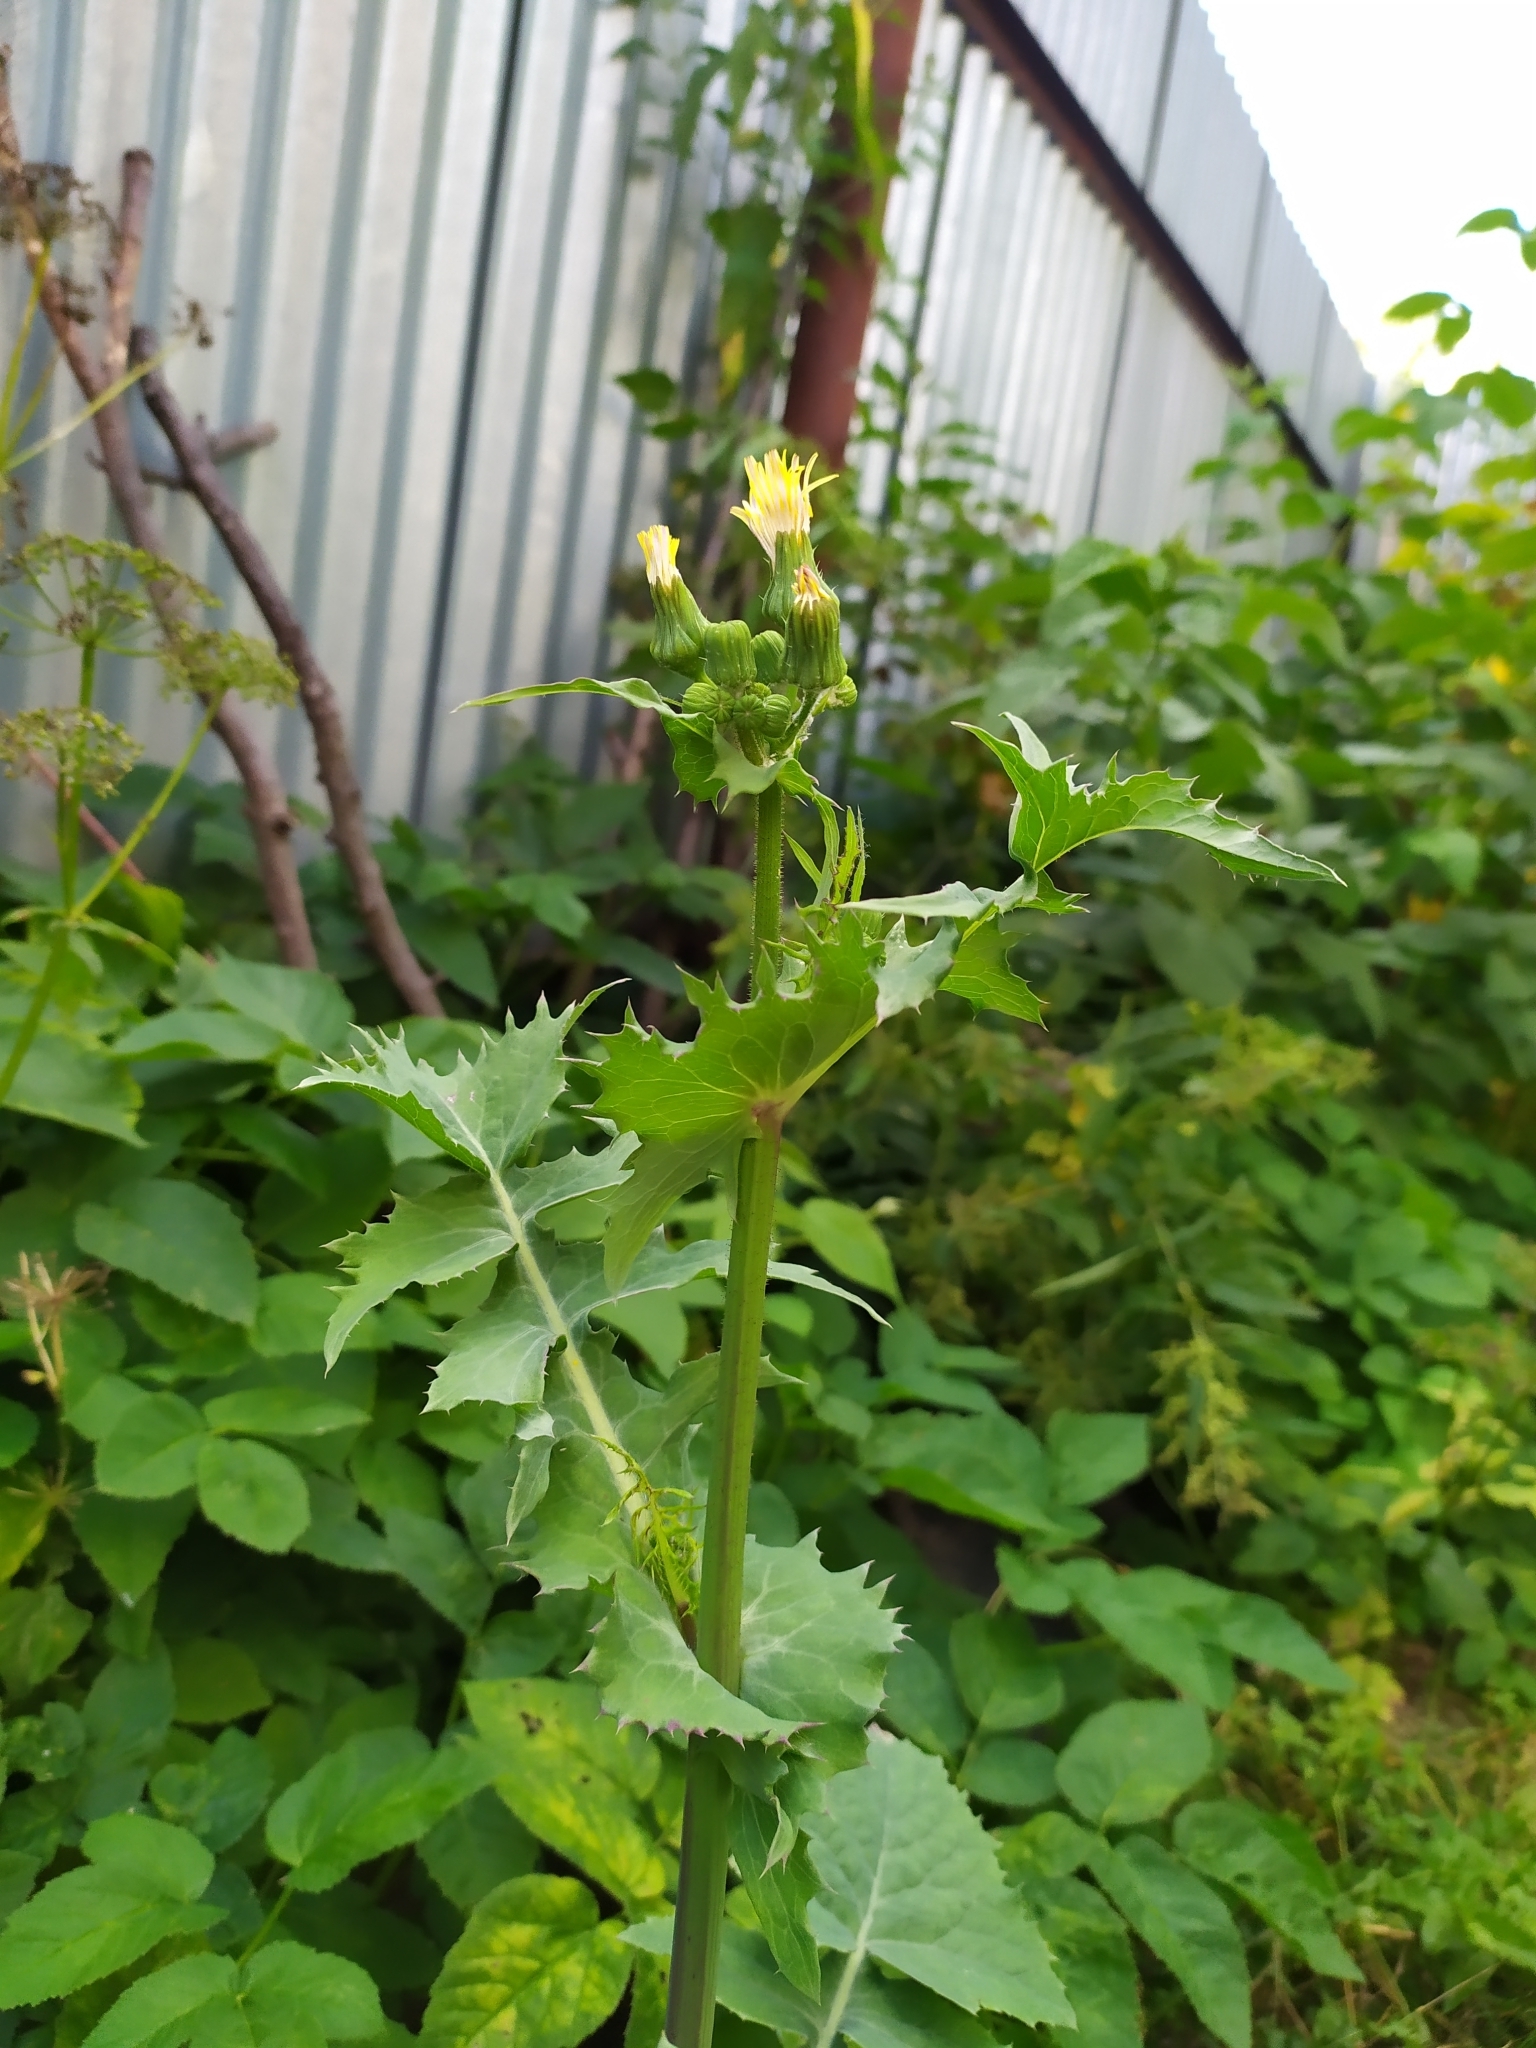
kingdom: Plantae
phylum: Tracheophyta
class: Magnoliopsida
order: Asterales
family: Asteraceae
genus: Sonchus
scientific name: Sonchus oleraceus
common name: Common sowthistle
